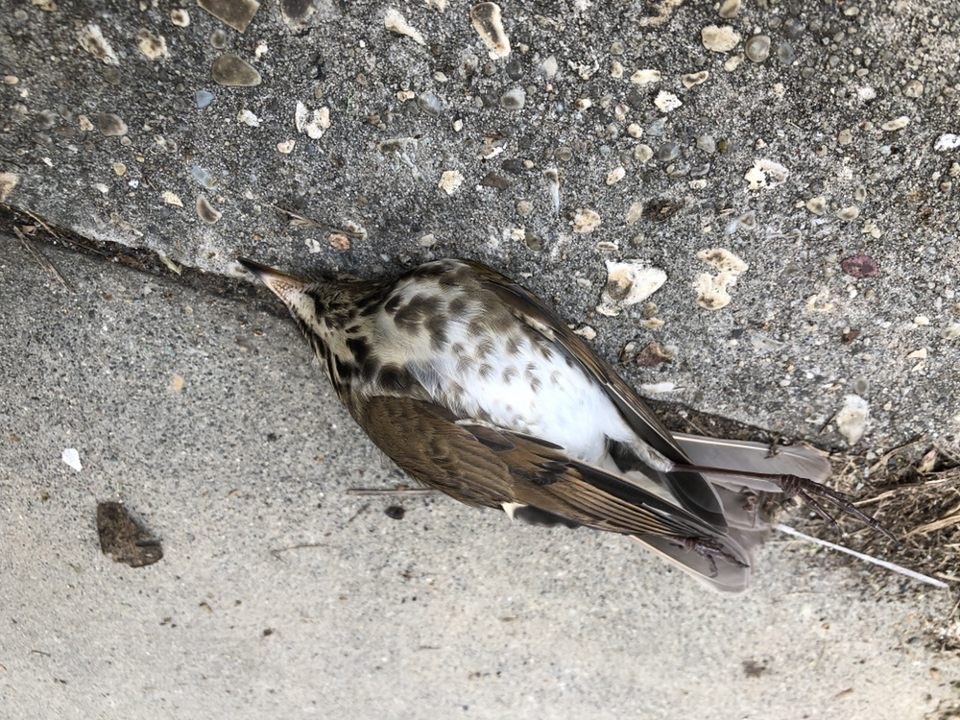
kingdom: Animalia
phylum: Chordata
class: Aves
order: Passeriformes
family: Turdidae
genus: Catharus
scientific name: Catharus guttatus
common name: Hermit thrush
